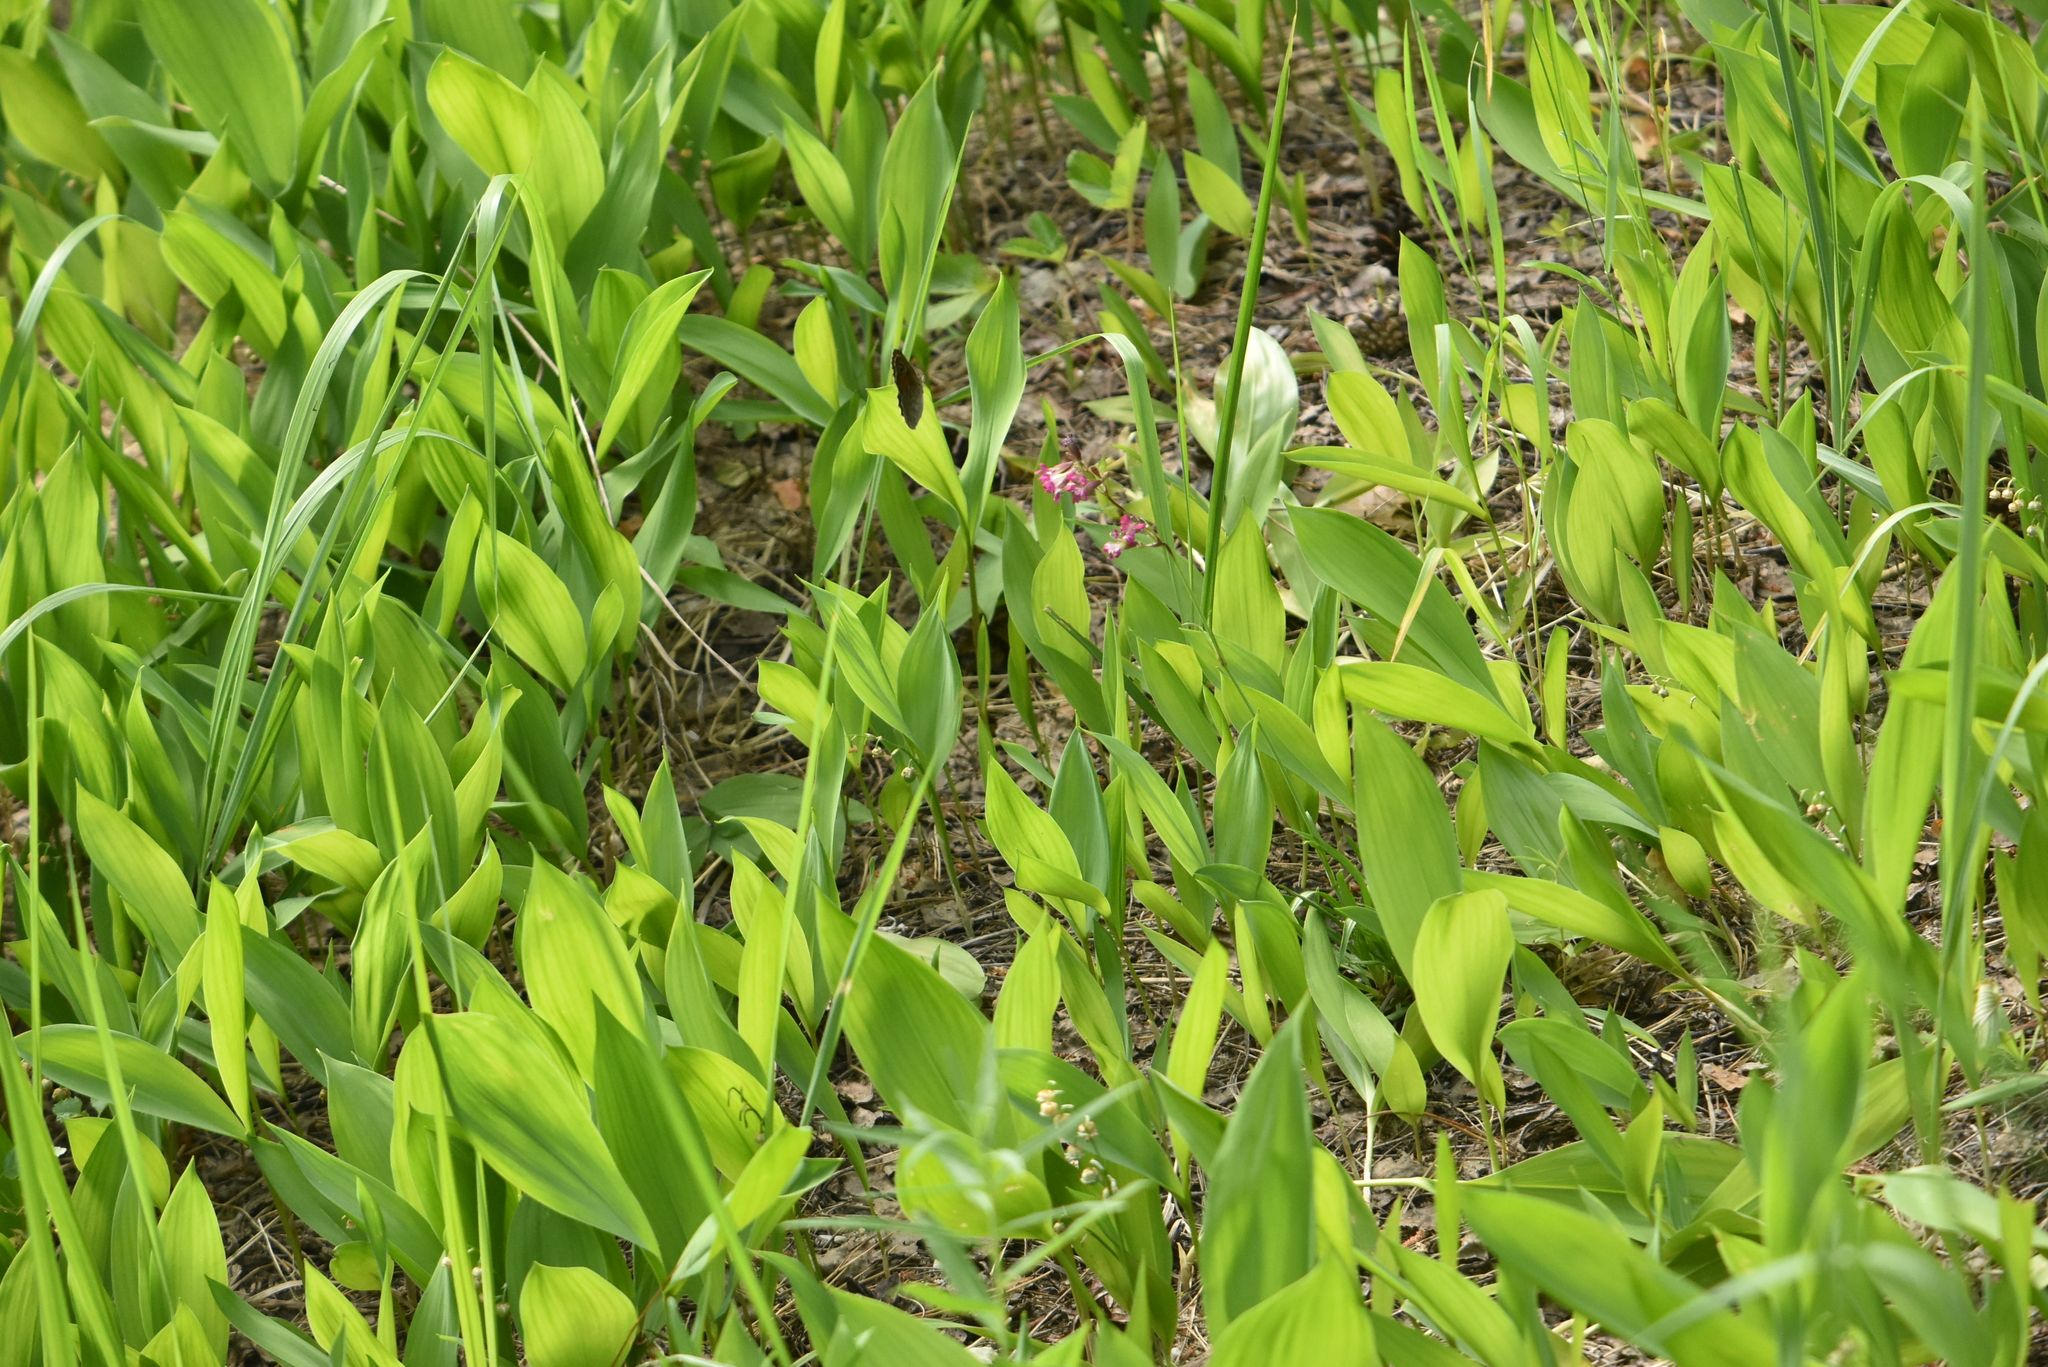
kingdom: Plantae
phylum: Tracheophyta
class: Liliopsida
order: Asparagales
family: Asparagaceae
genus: Convallaria
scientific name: Convallaria majalis
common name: Lily-of-the-valley
